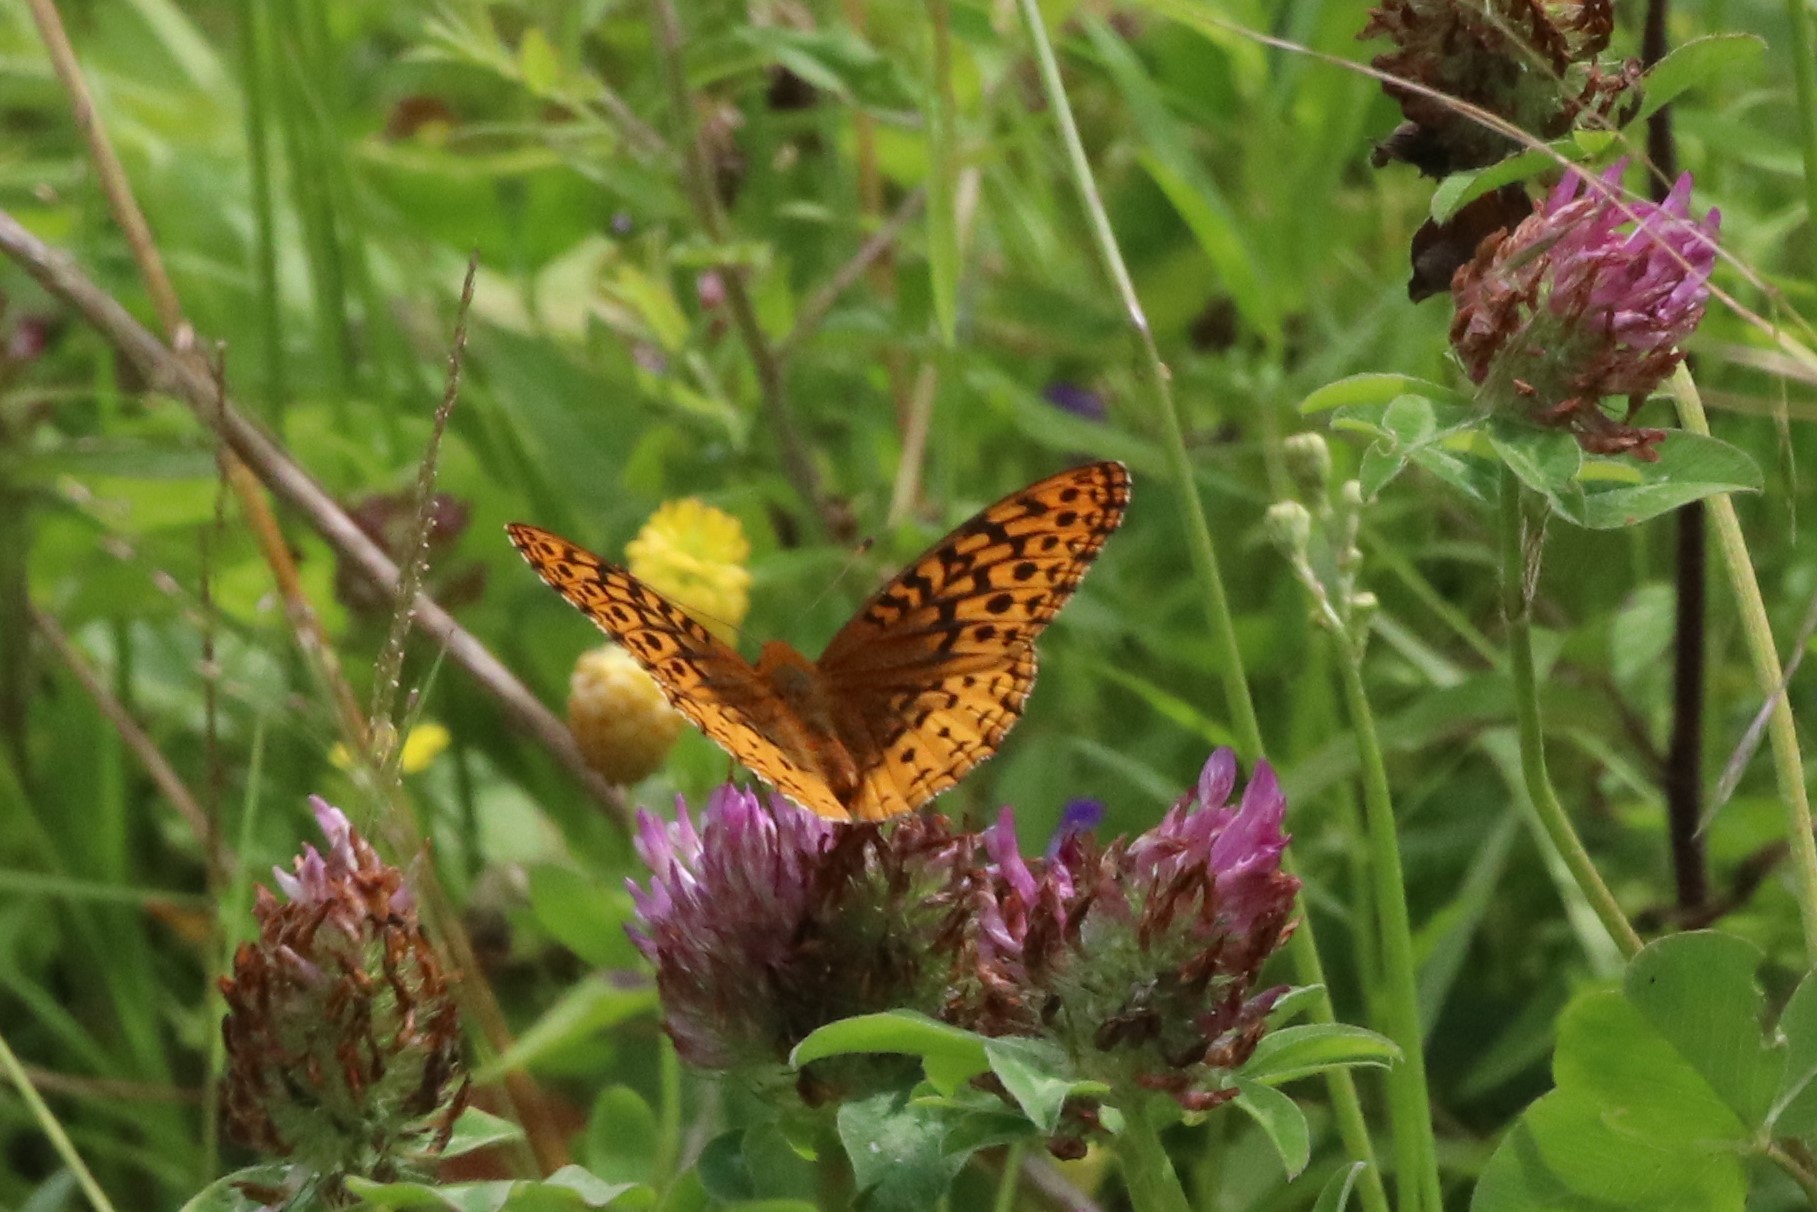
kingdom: Animalia
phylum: Arthropoda
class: Insecta
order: Lepidoptera
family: Nymphalidae
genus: Speyeria
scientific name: Speyeria cybele
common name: Great spangled fritillary
